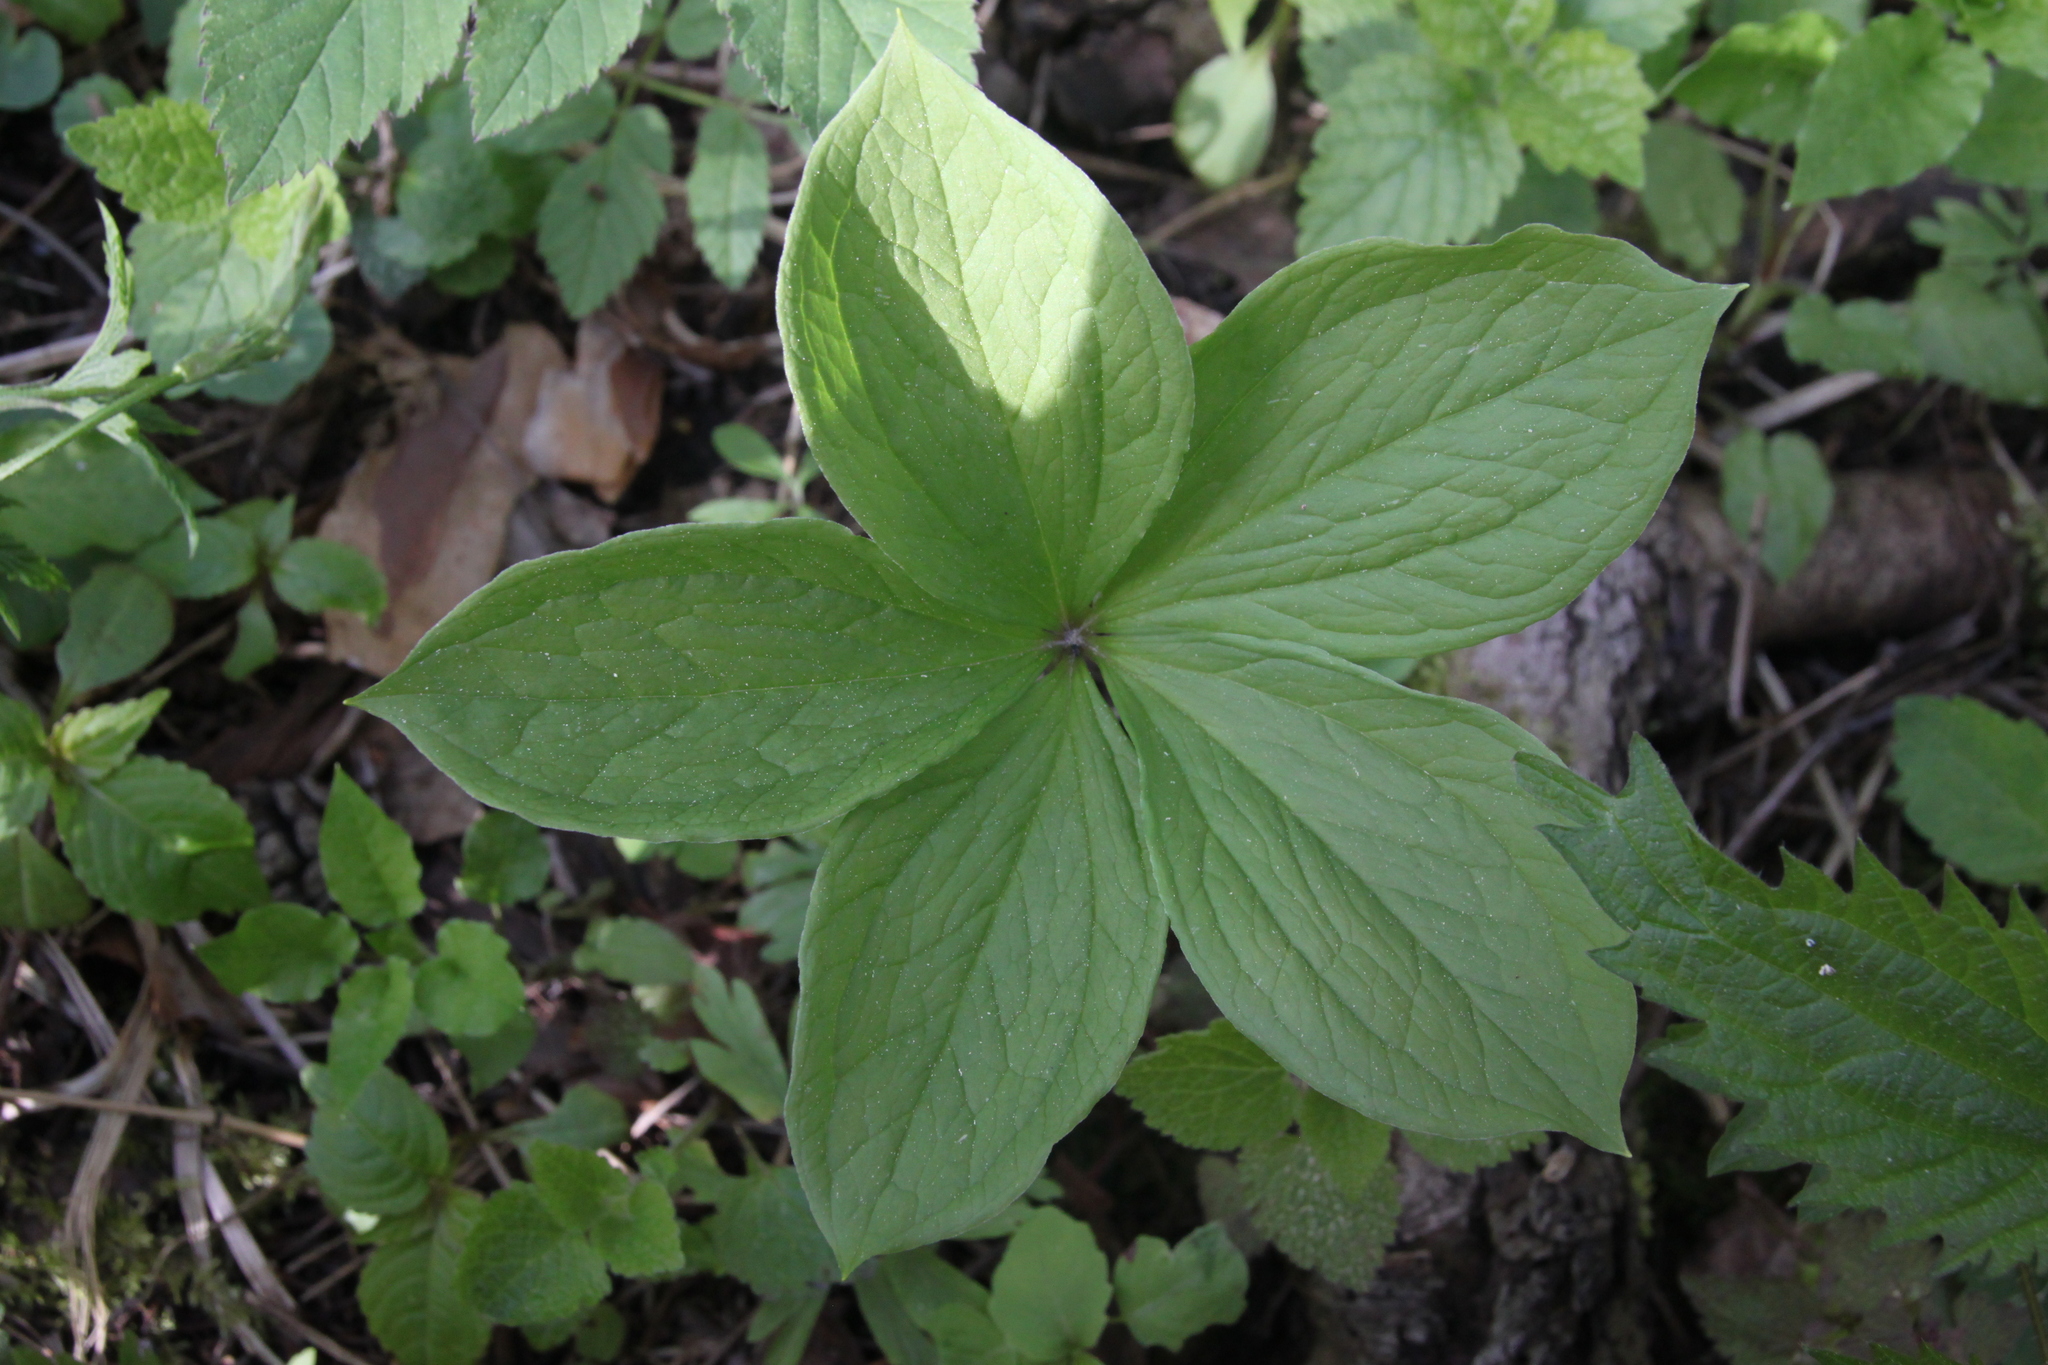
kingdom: Plantae
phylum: Tracheophyta
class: Liliopsida
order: Liliales
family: Melanthiaceae
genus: Paris
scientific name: Paris quadrifolia
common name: Herb-paris
